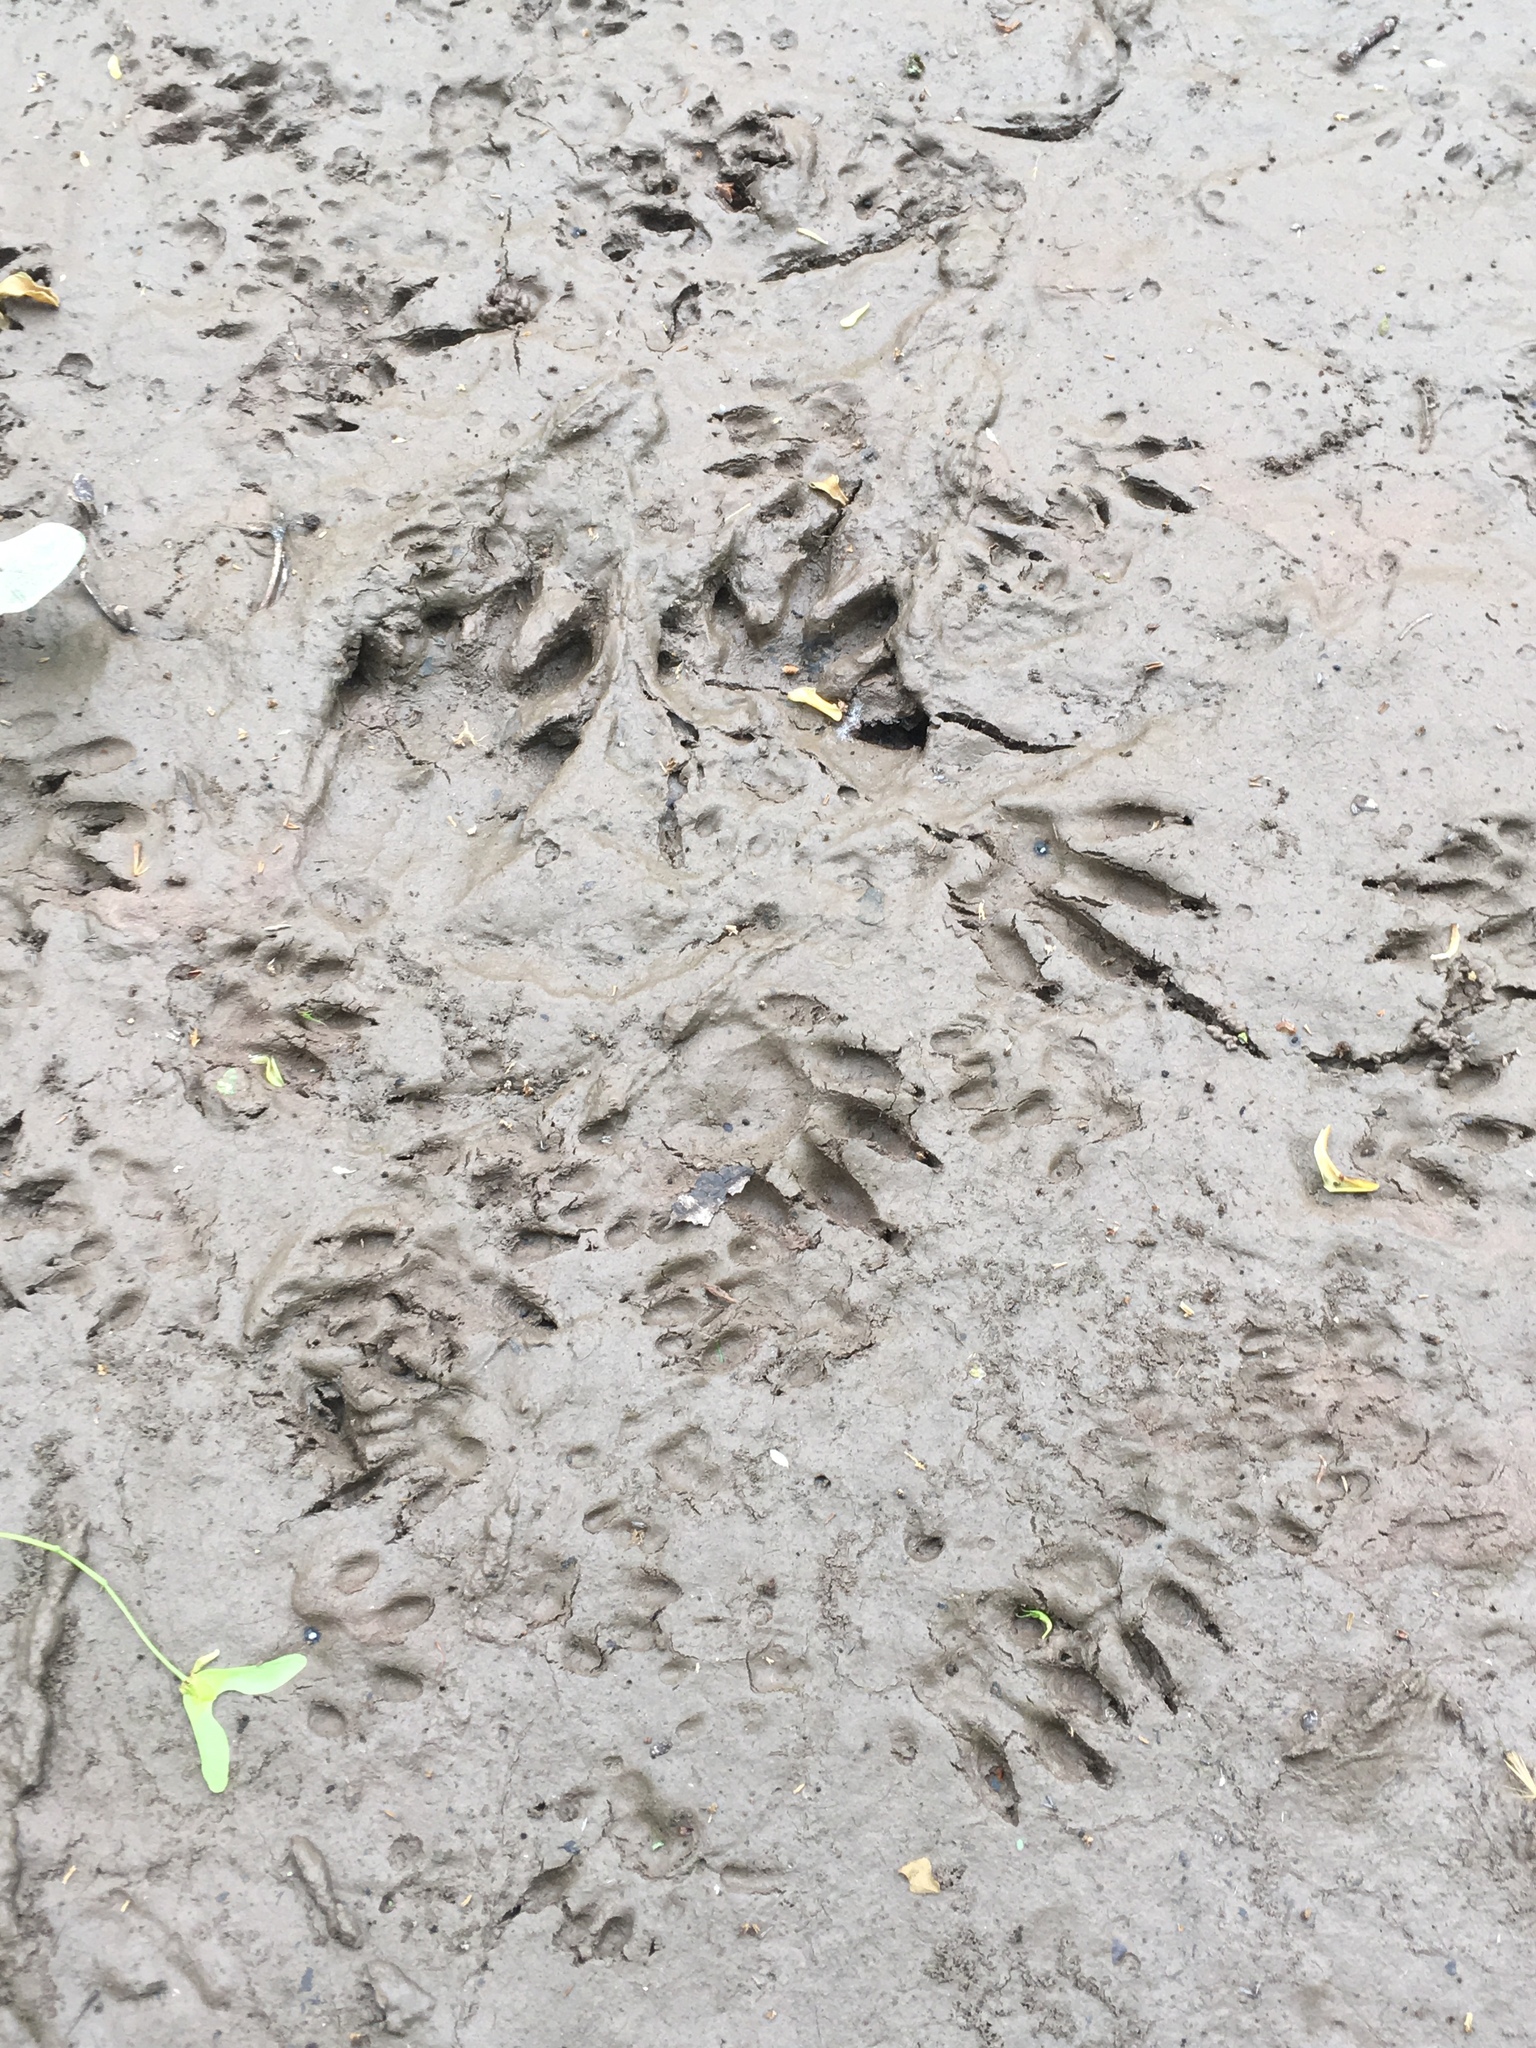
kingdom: Animalia
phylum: Chordata
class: Mammalia
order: Carnivora
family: Mustelidae
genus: Mustela
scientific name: Mustela
